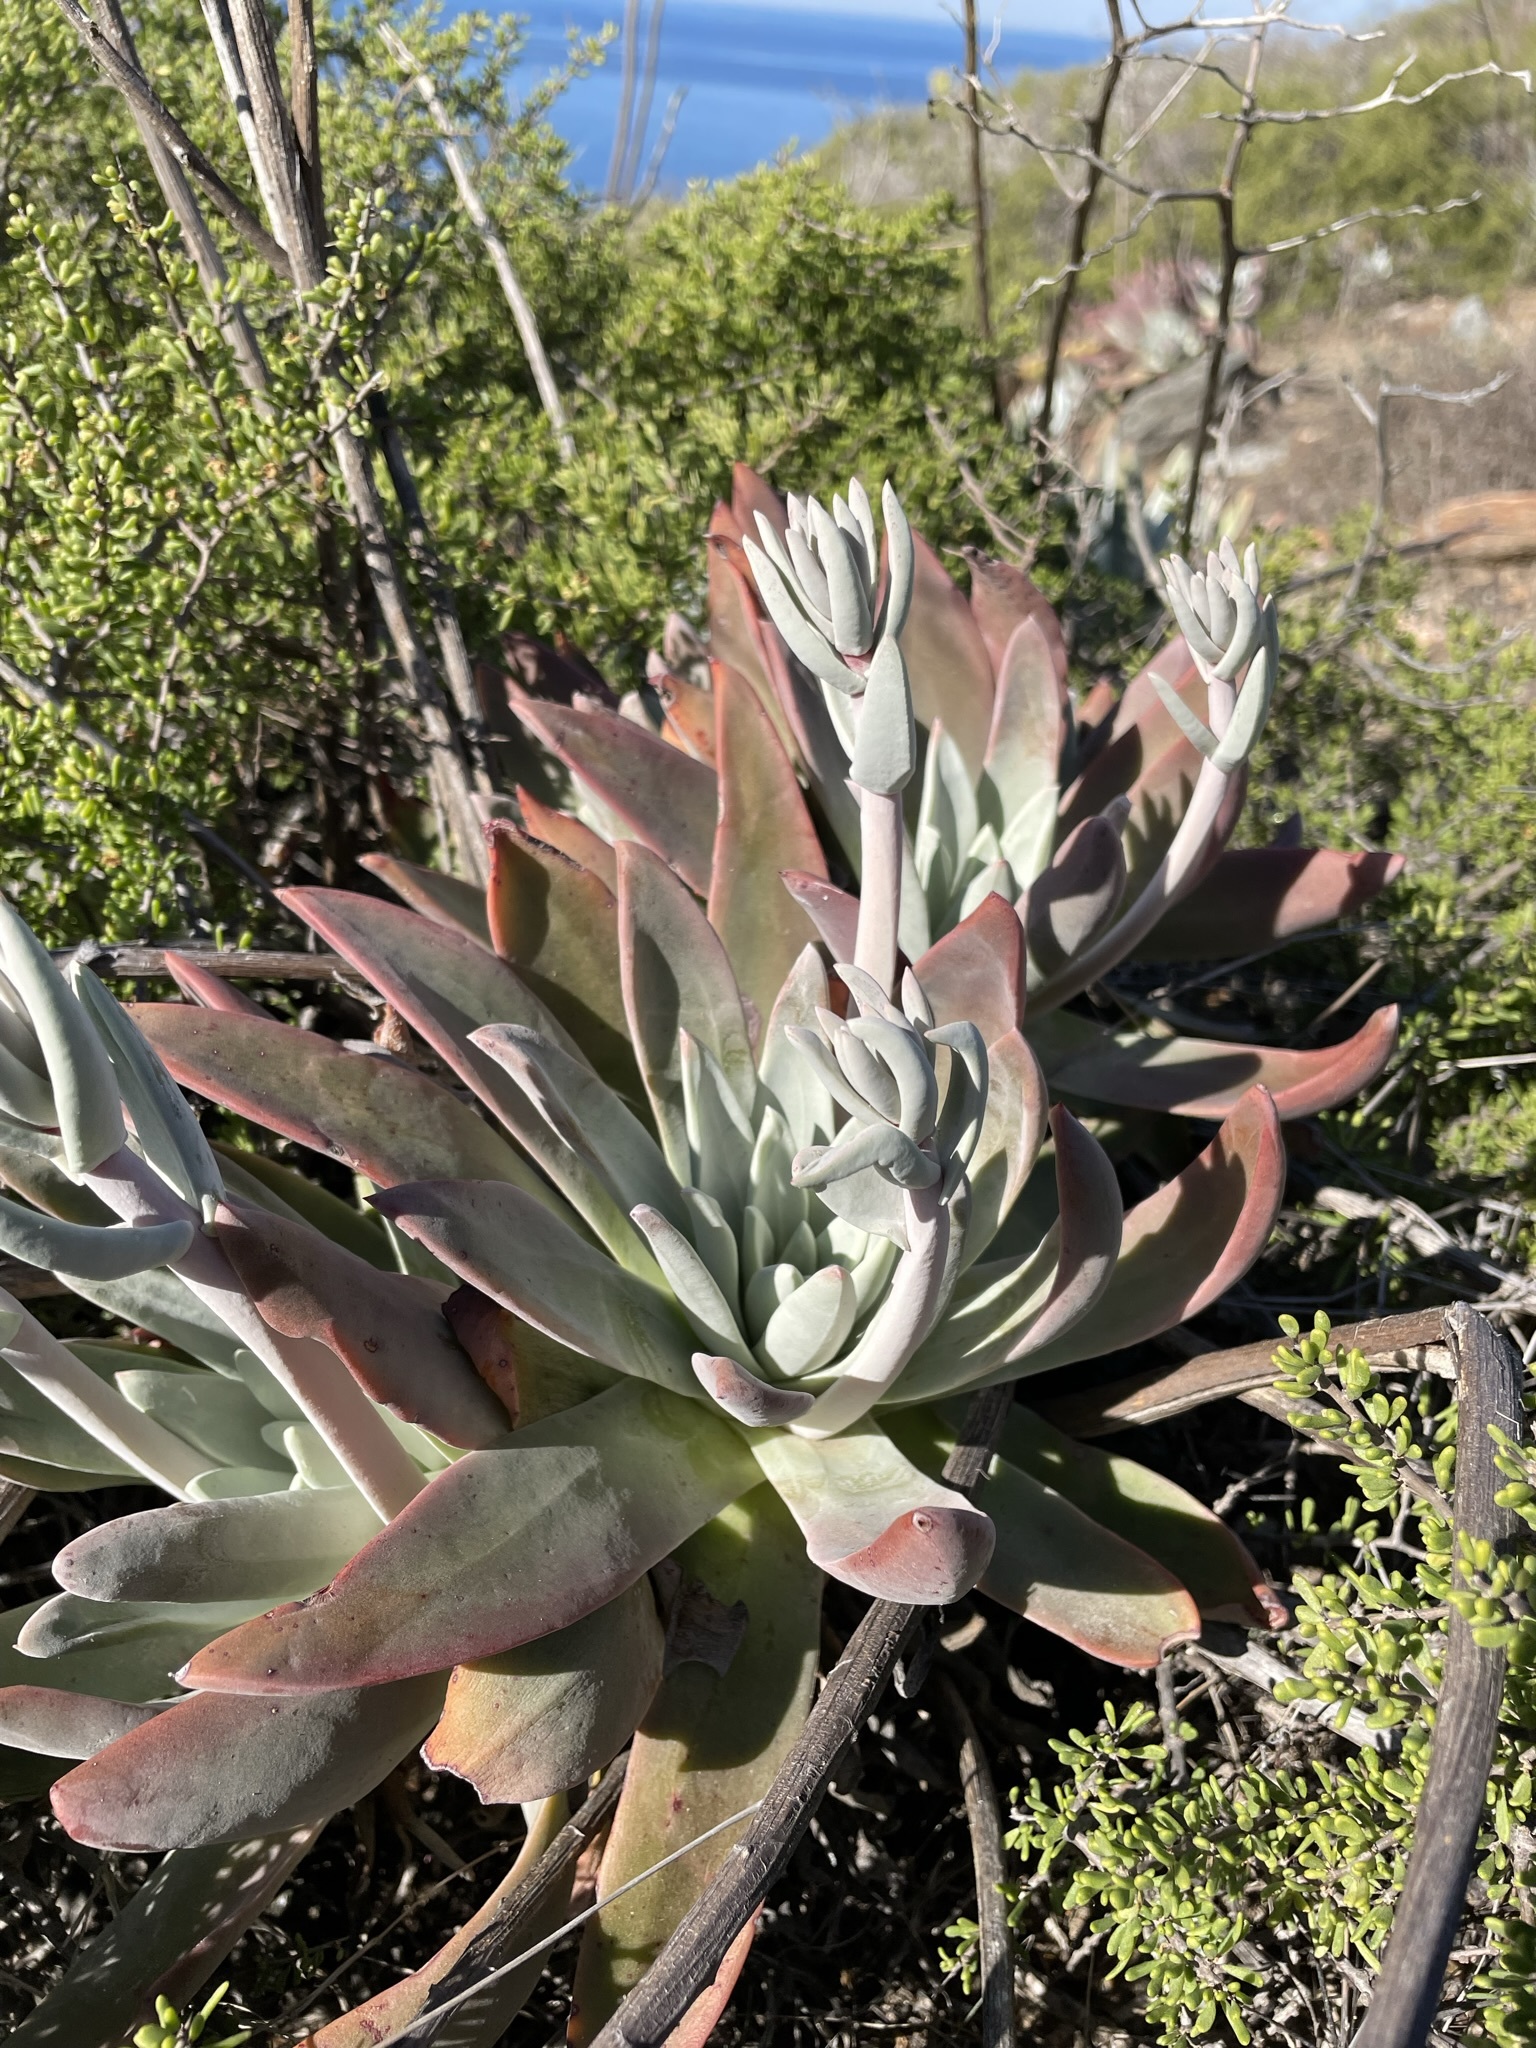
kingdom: Plantae
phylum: Tracheophyta
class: Magnoliopsida
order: Saxifragales
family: Crassulaceae
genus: Dudleya
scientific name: Dudleya virens
